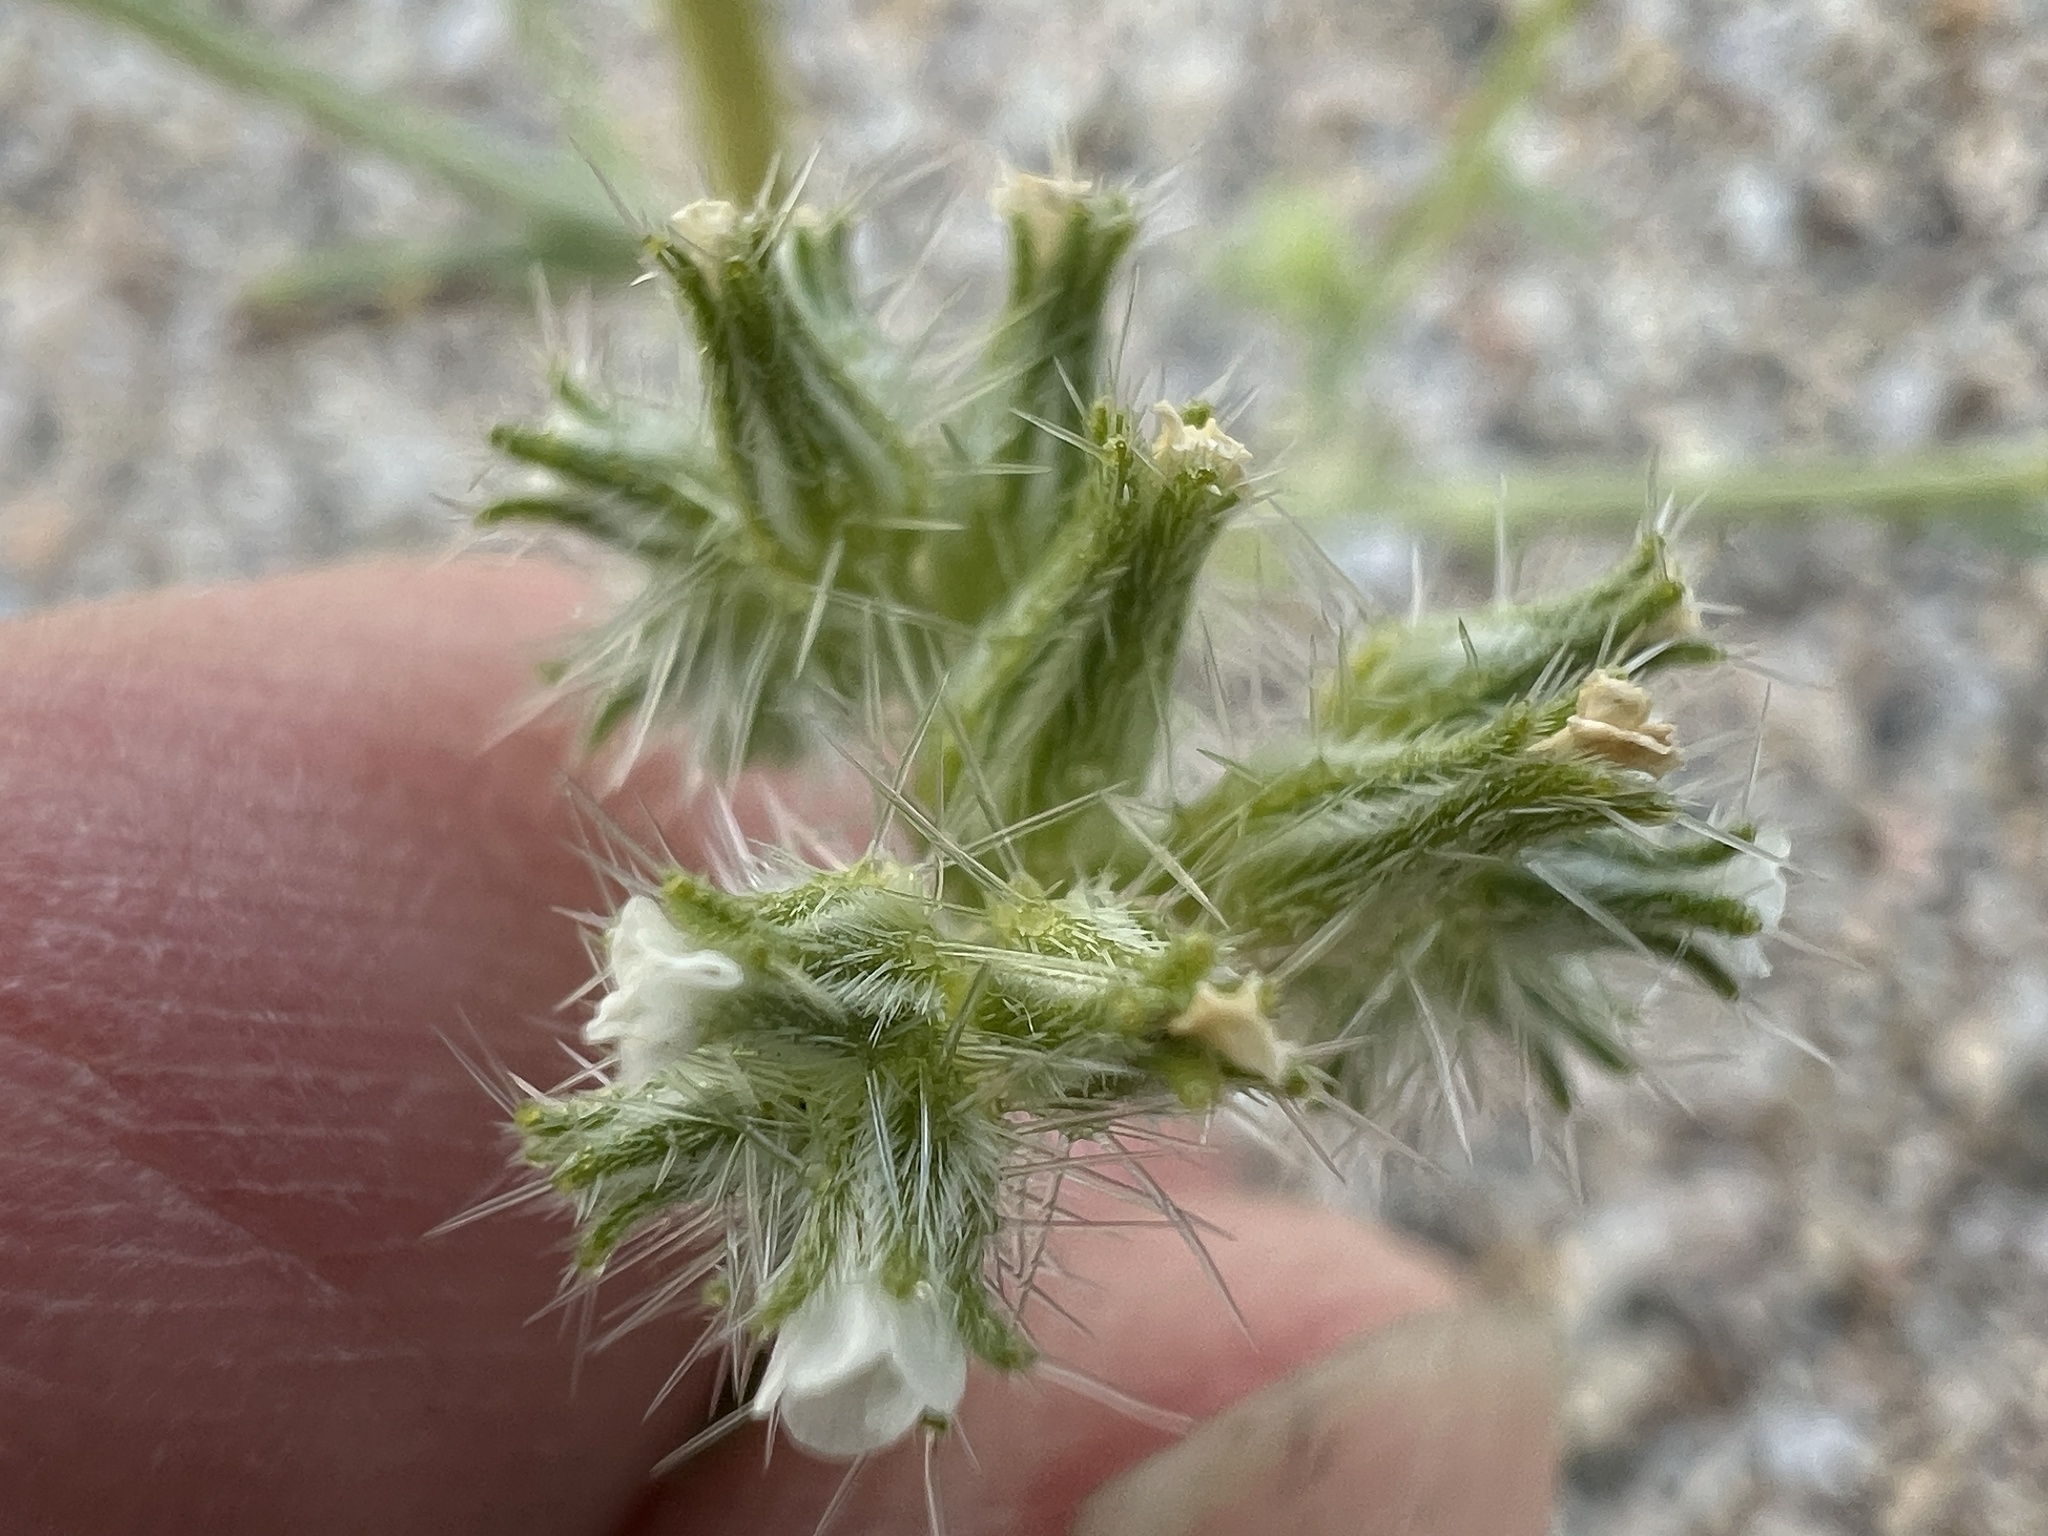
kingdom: Plantae
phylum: Tracheophyta
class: Magnoliopsida
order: Boraginales
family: Boraginaceae
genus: Cryptantha
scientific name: Cryptantha nevadensis
